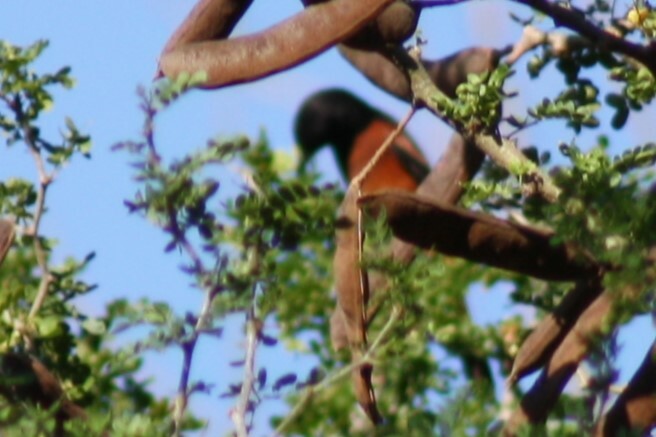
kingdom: Animalia
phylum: Chordata
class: Aves
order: Passeriformes
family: Icteridae
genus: Icterus
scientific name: Icterus spurius
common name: Orchard oriole
